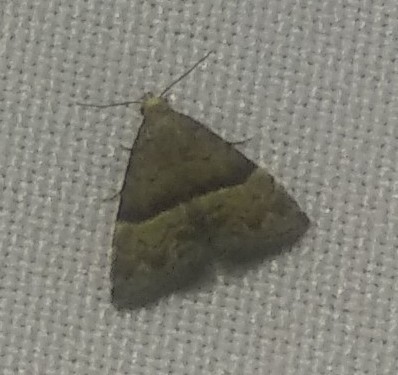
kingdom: Animalia
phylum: Arthropoda
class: Insecta
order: Lepidoptera
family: Noctuidae
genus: Odice
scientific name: Odice jucunda
